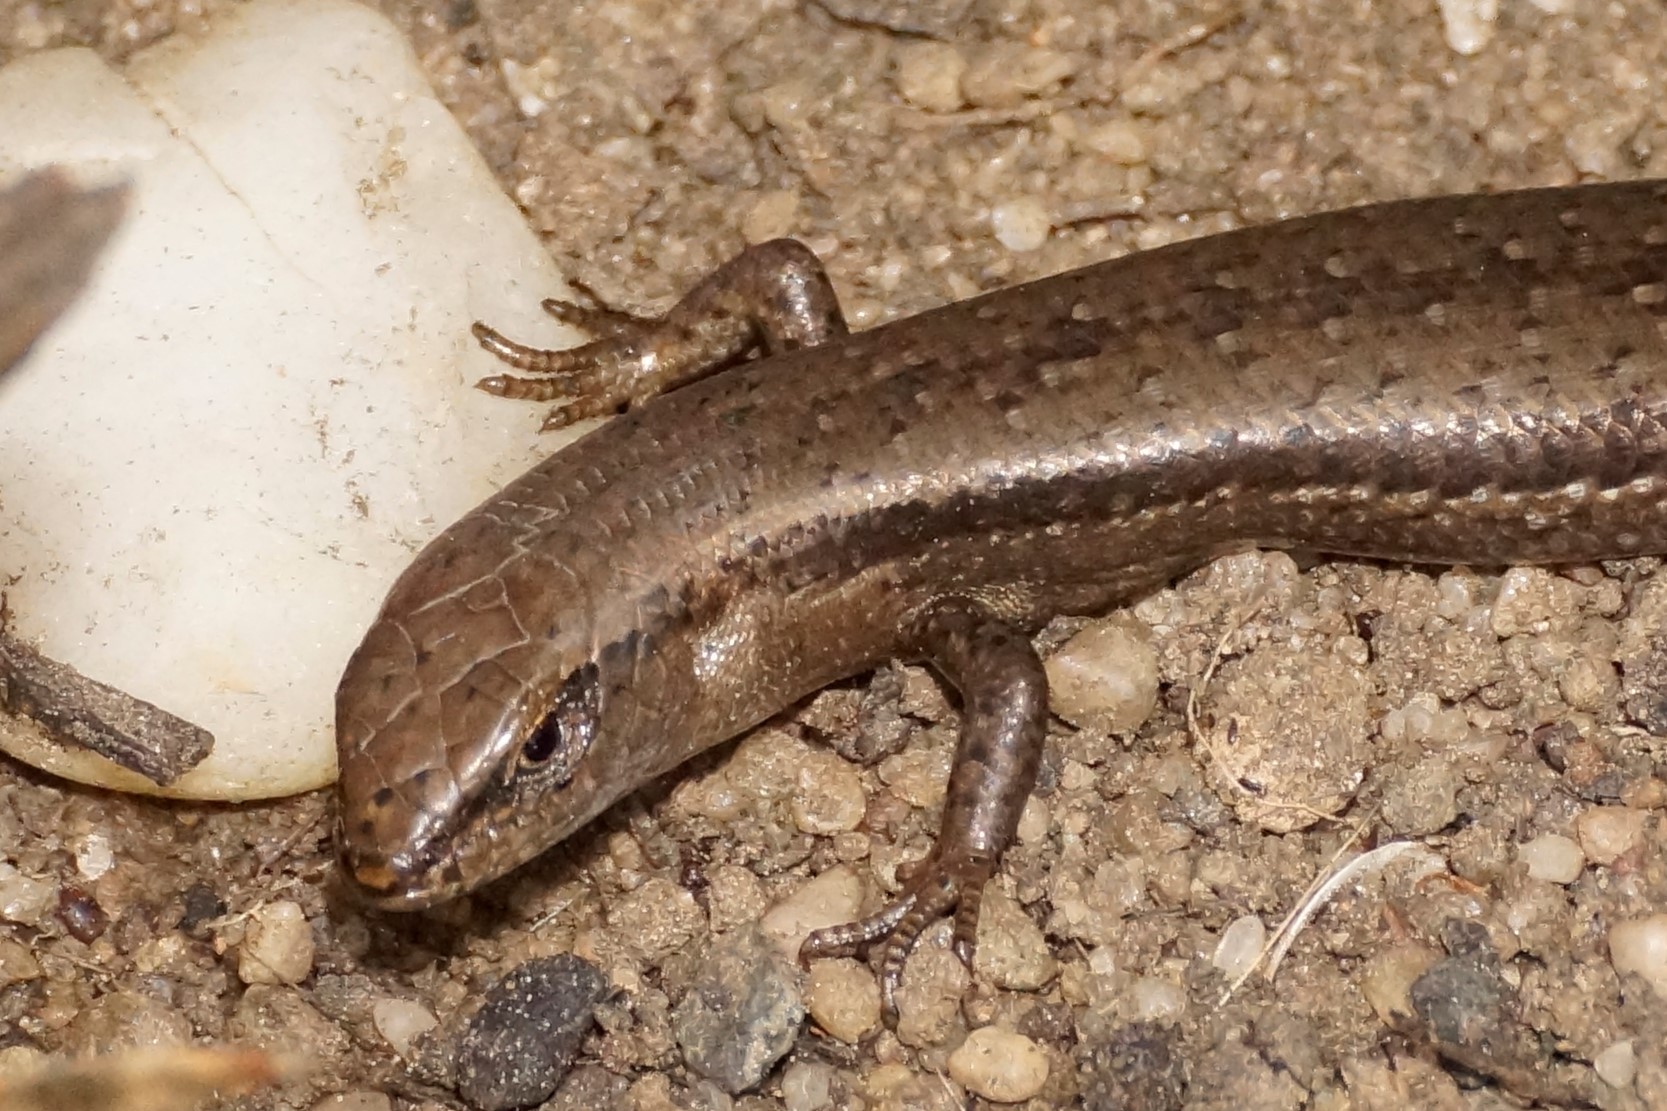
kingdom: Animalia
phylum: Chordata
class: Squamata
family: Scincidae
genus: Lampropholis
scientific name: Lampropholis guichenoti
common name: Garden skink
